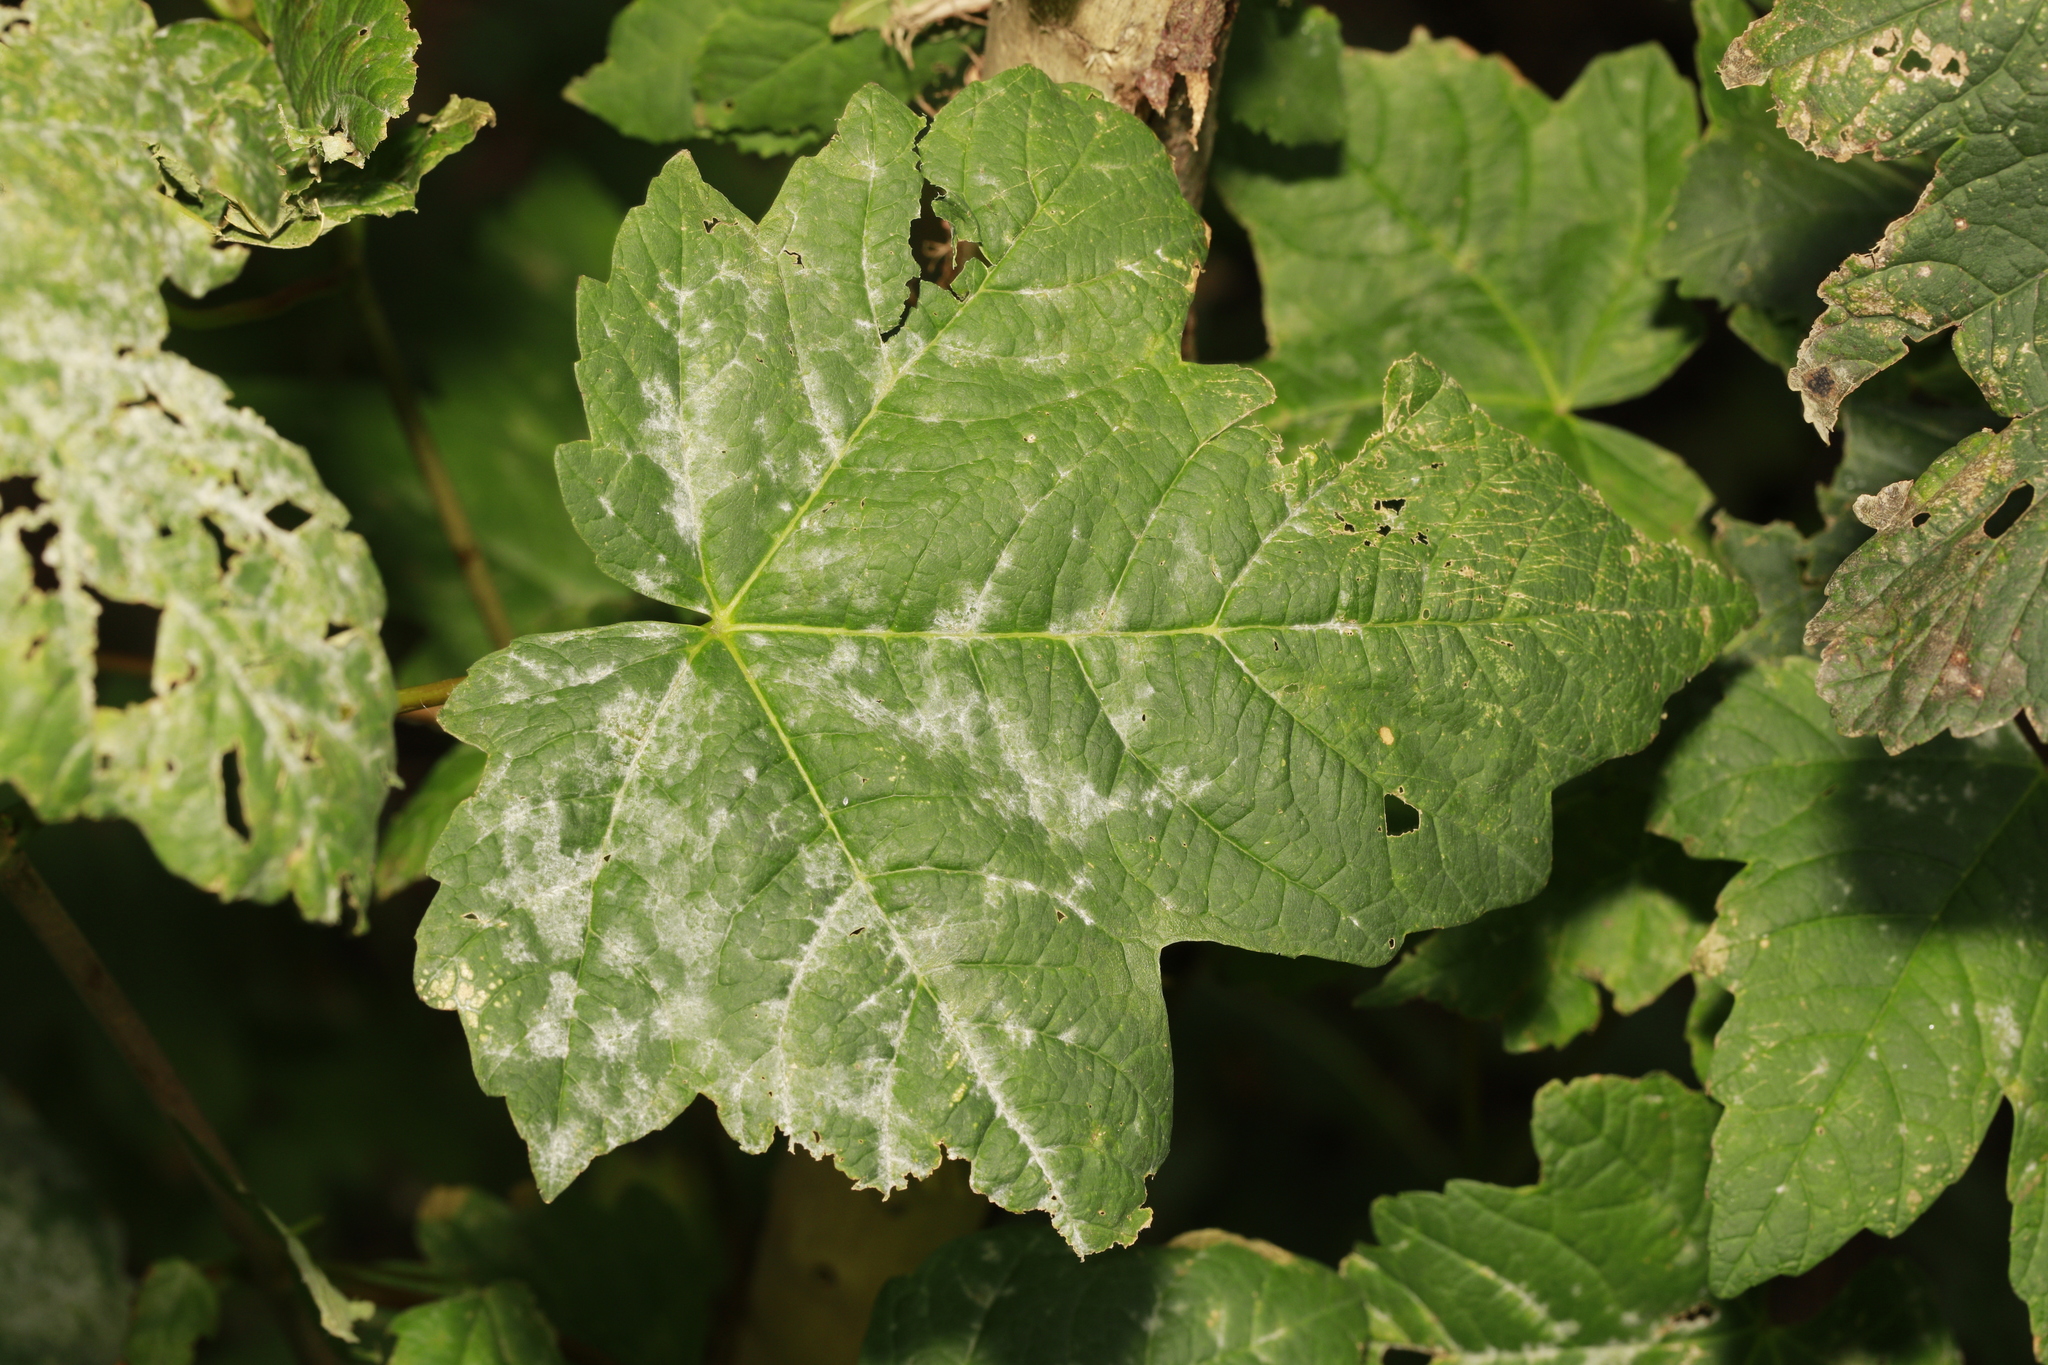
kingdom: Plantae
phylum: Tracheophyta
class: Magnoliopsida
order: Sapindales
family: Sapindaceae
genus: Acer
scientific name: Acer pseudoplatanus
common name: Sycamore
